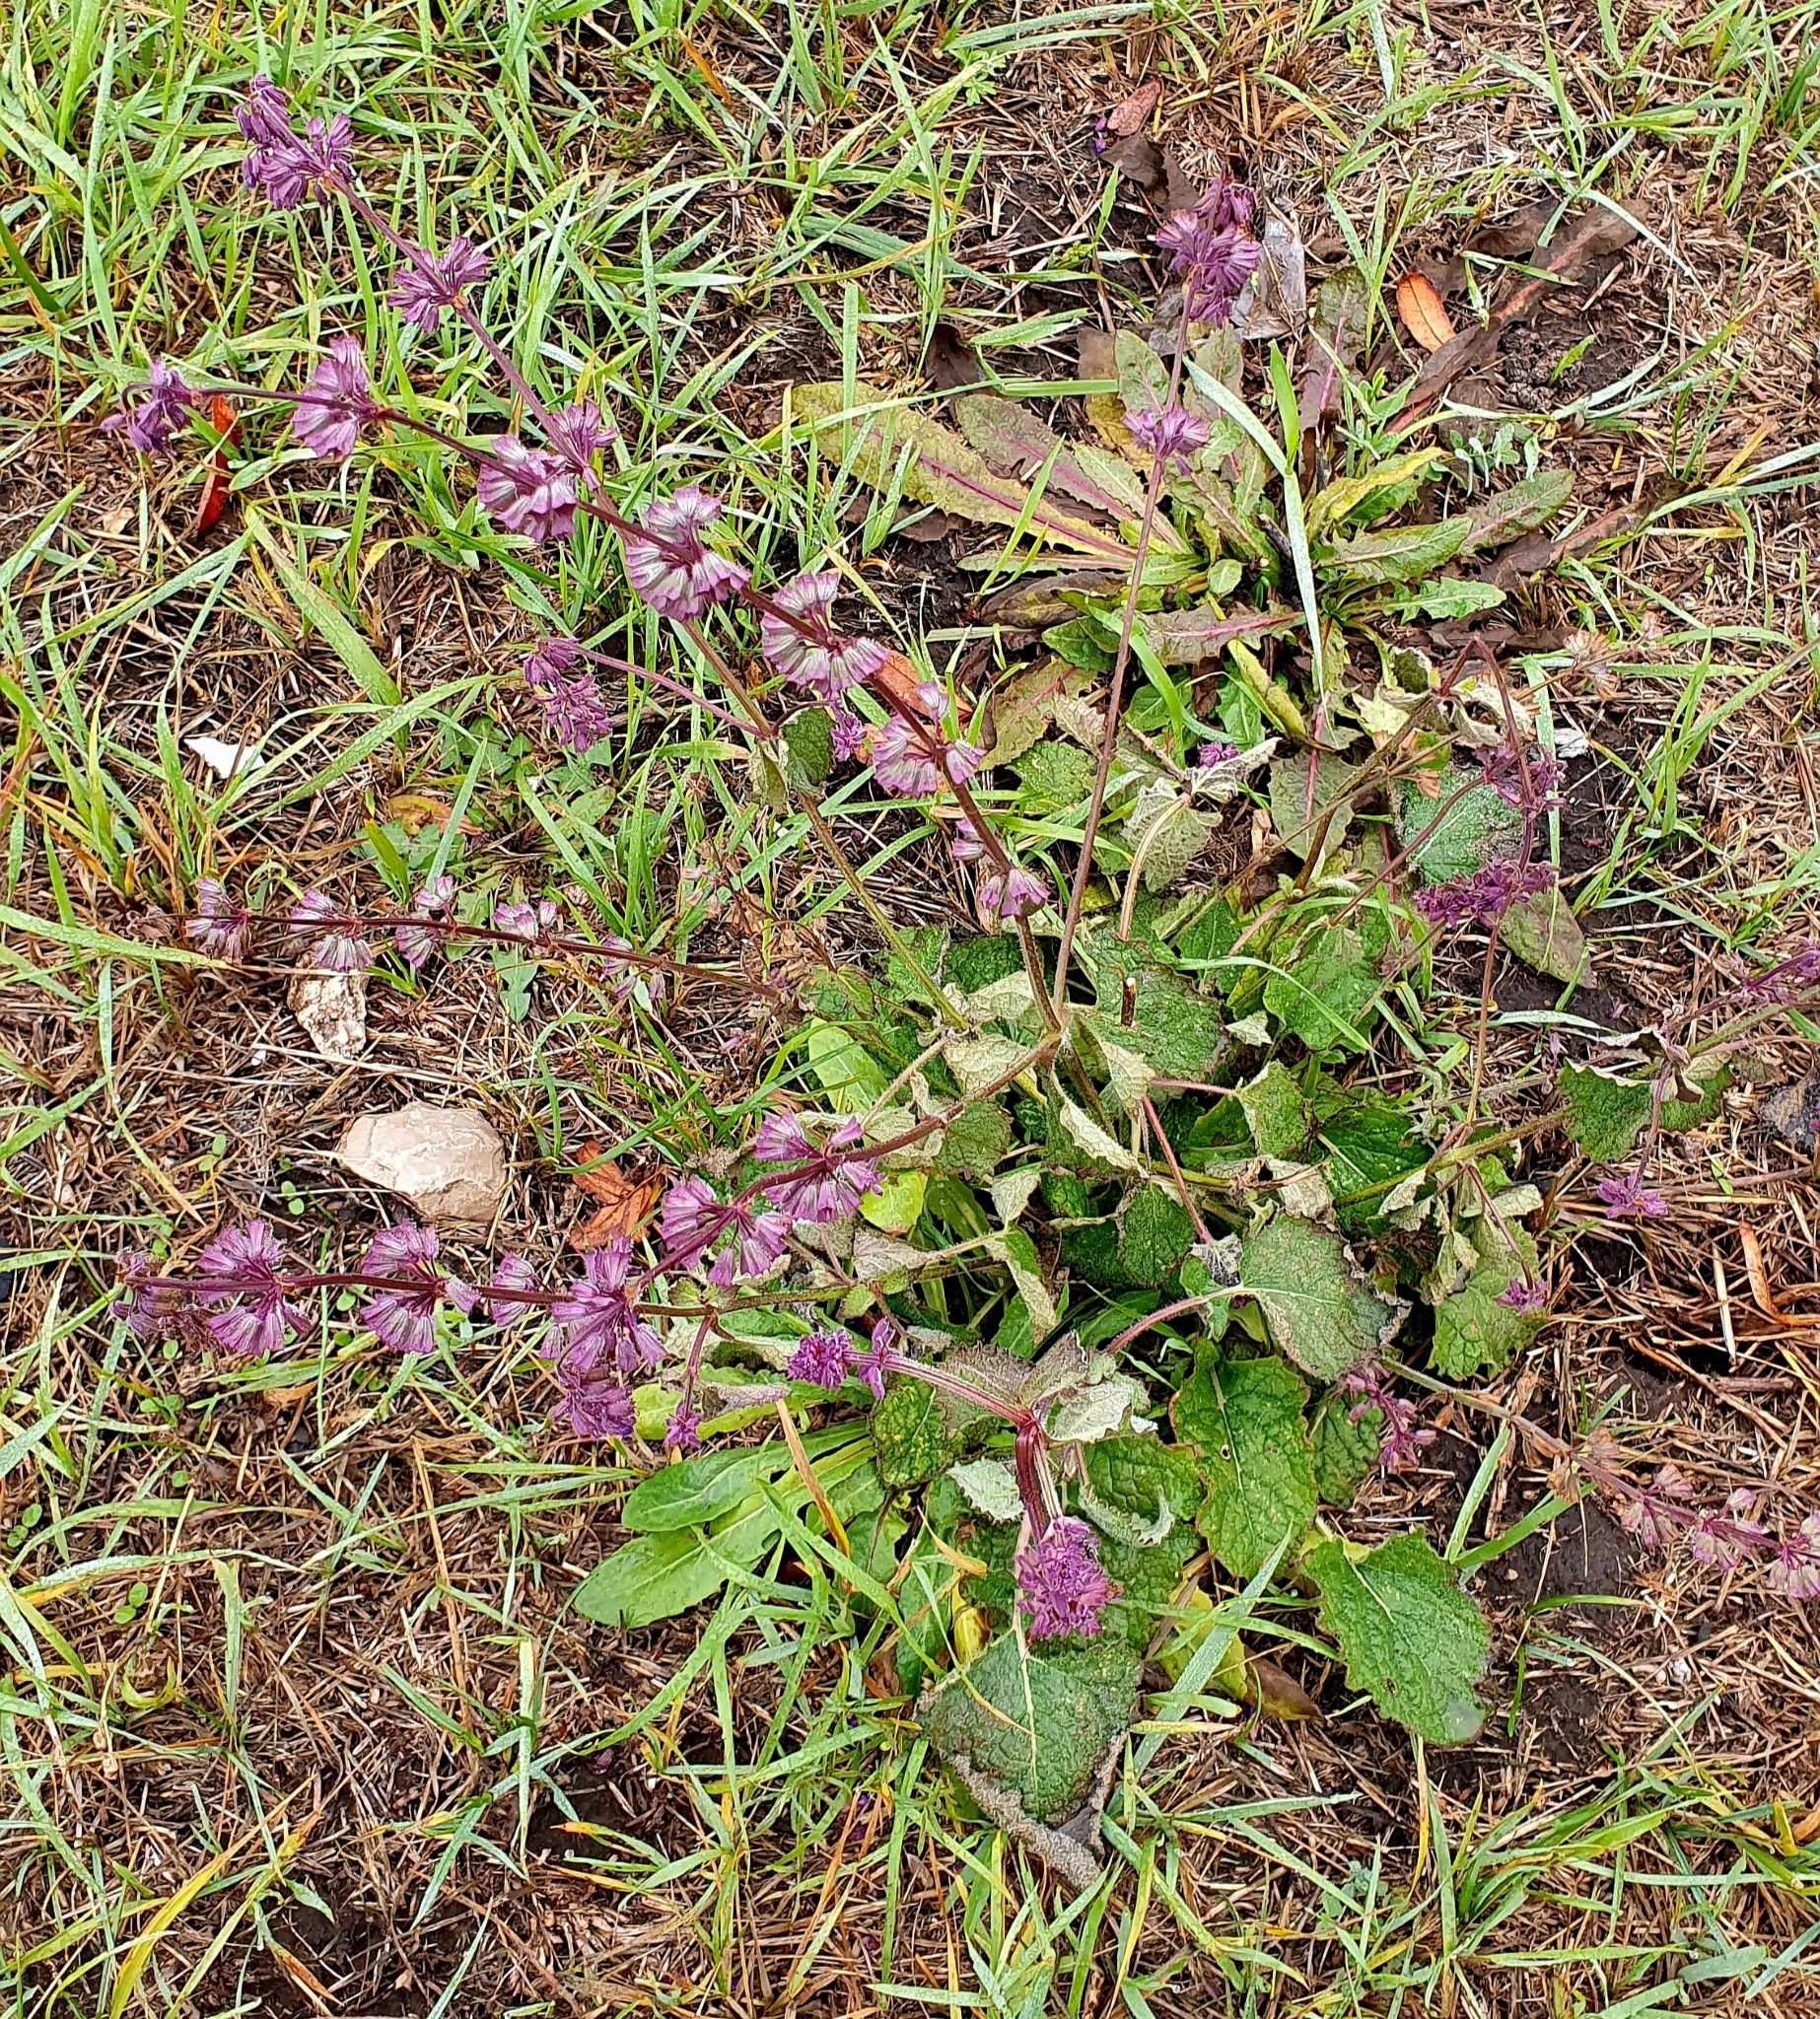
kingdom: Plantae
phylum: Tracheophyta
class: Magnoliopsida
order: Lamiales
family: Lamiaceae
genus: Salvia
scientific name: Salvia verticillata
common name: Whorled clary
